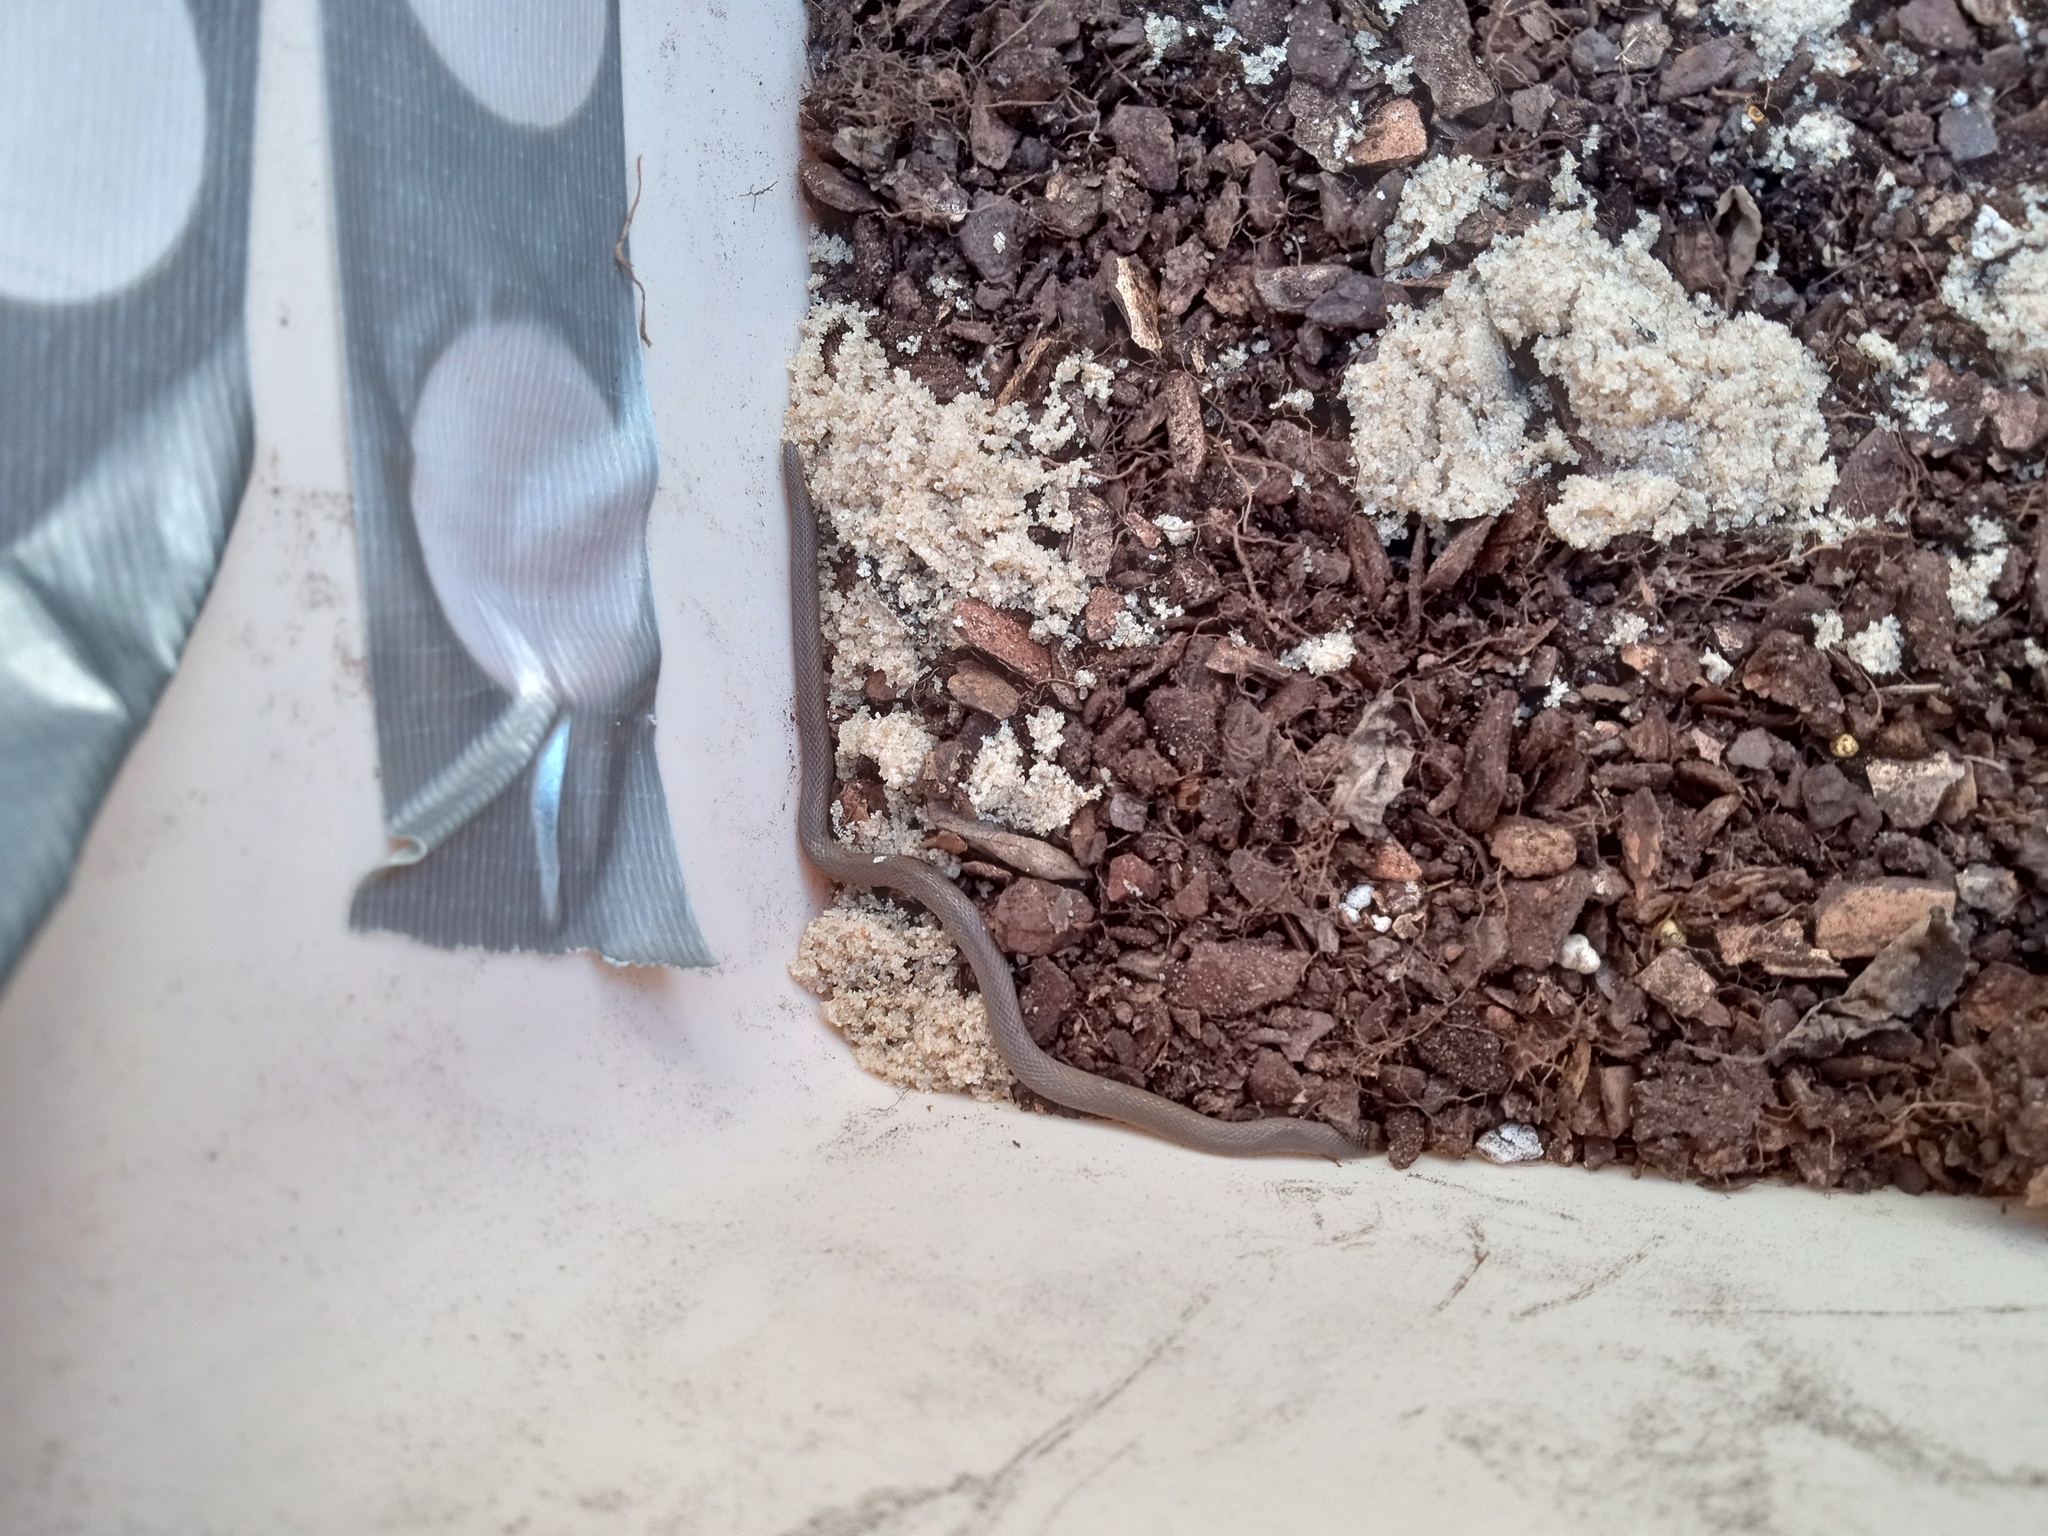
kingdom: Animalia
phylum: Chordata
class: Squamata
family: Colubridae
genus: Haldea
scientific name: Haldea striatula
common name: Rough earth snake
